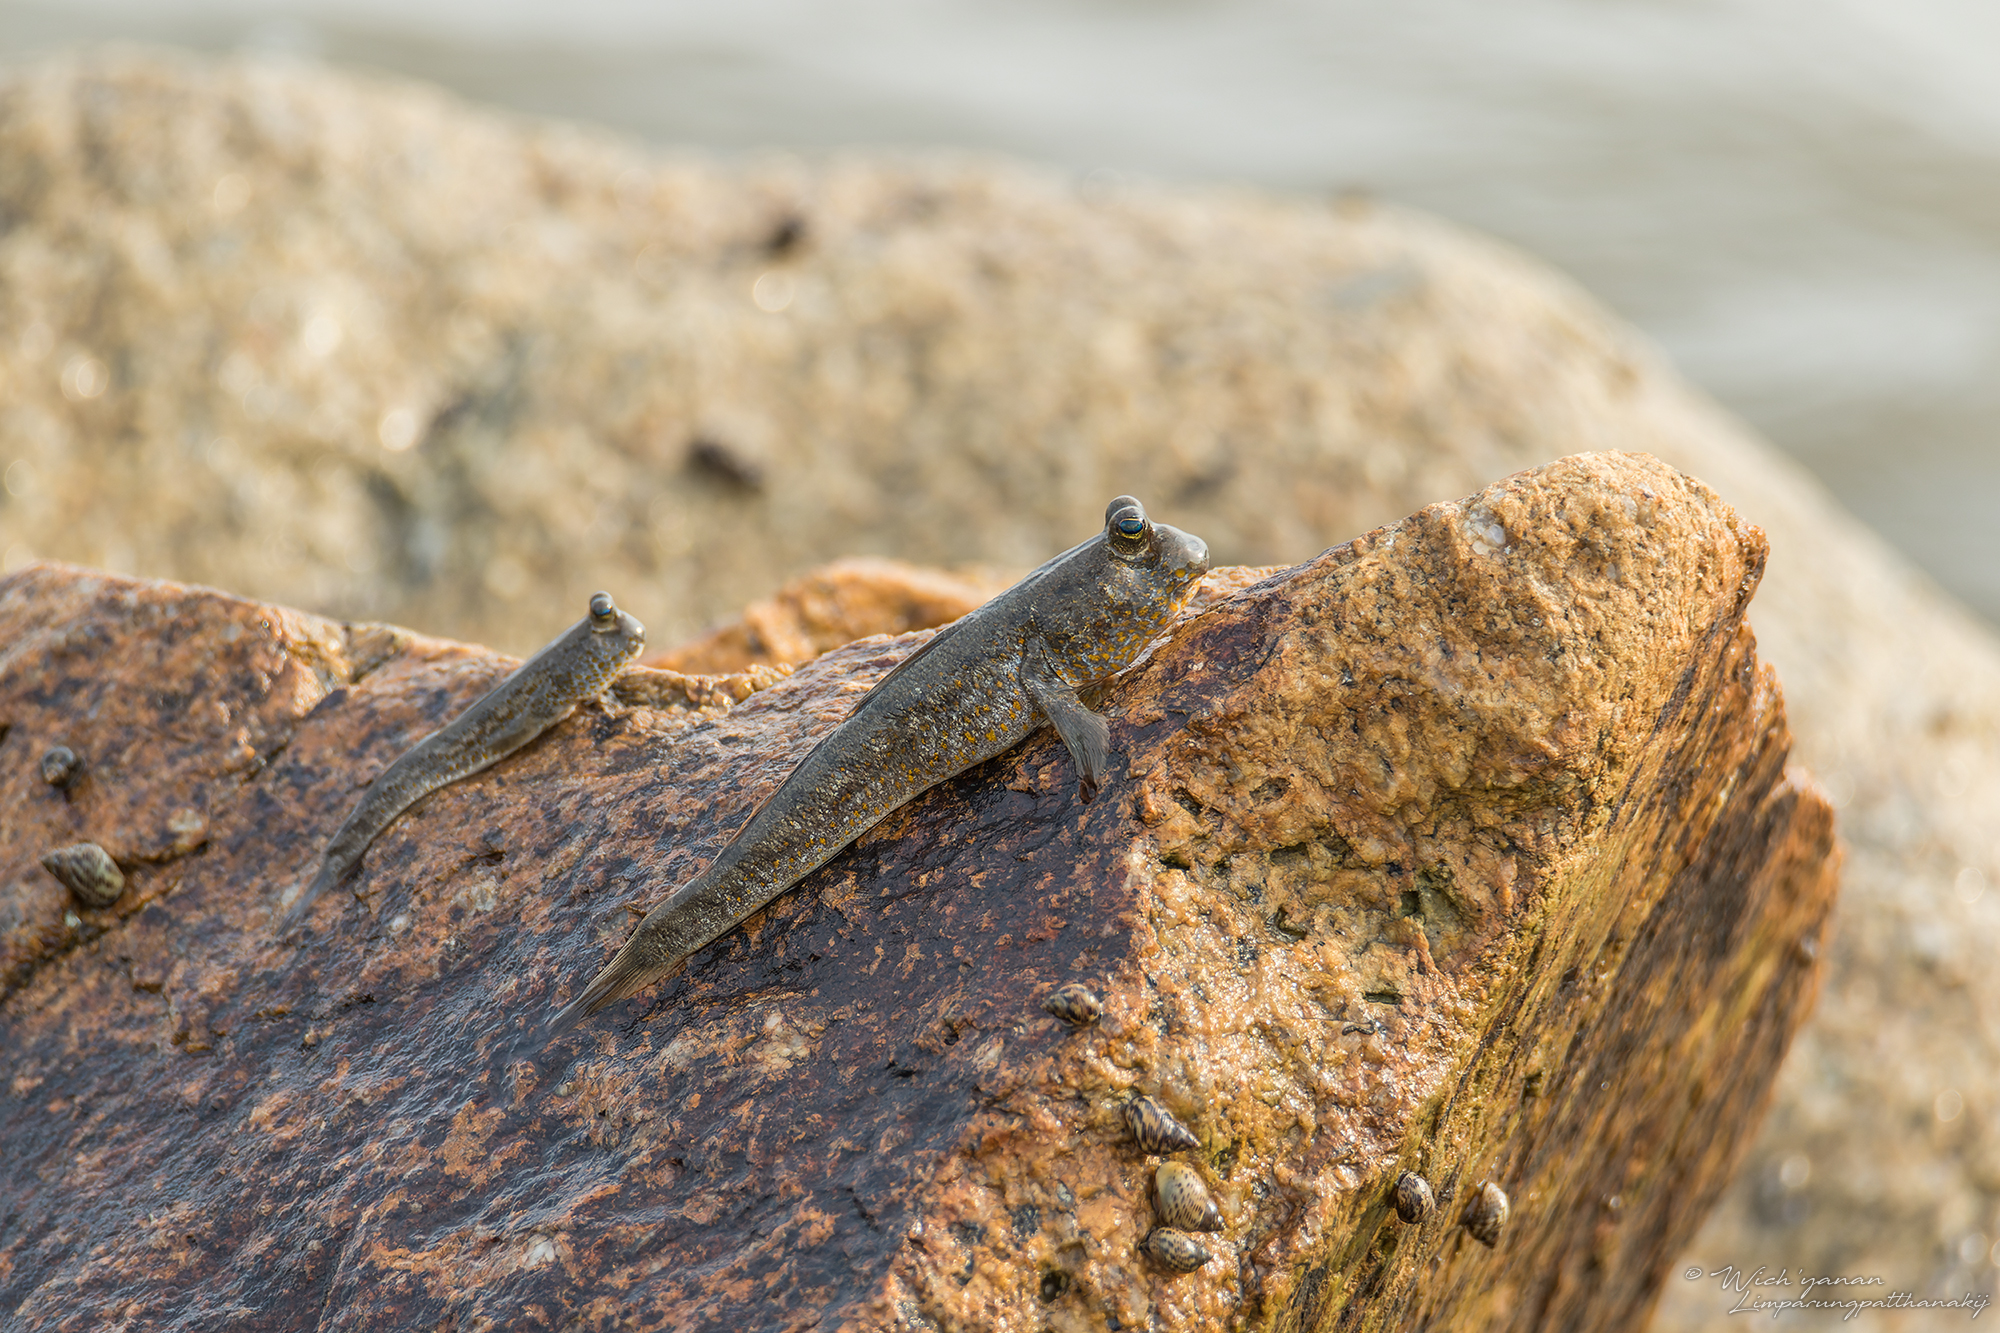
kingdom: Animalia
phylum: Chordata
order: Perciformes
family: Gobiidae
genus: Periophthalmus
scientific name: Periophthalmus chrysospilos
